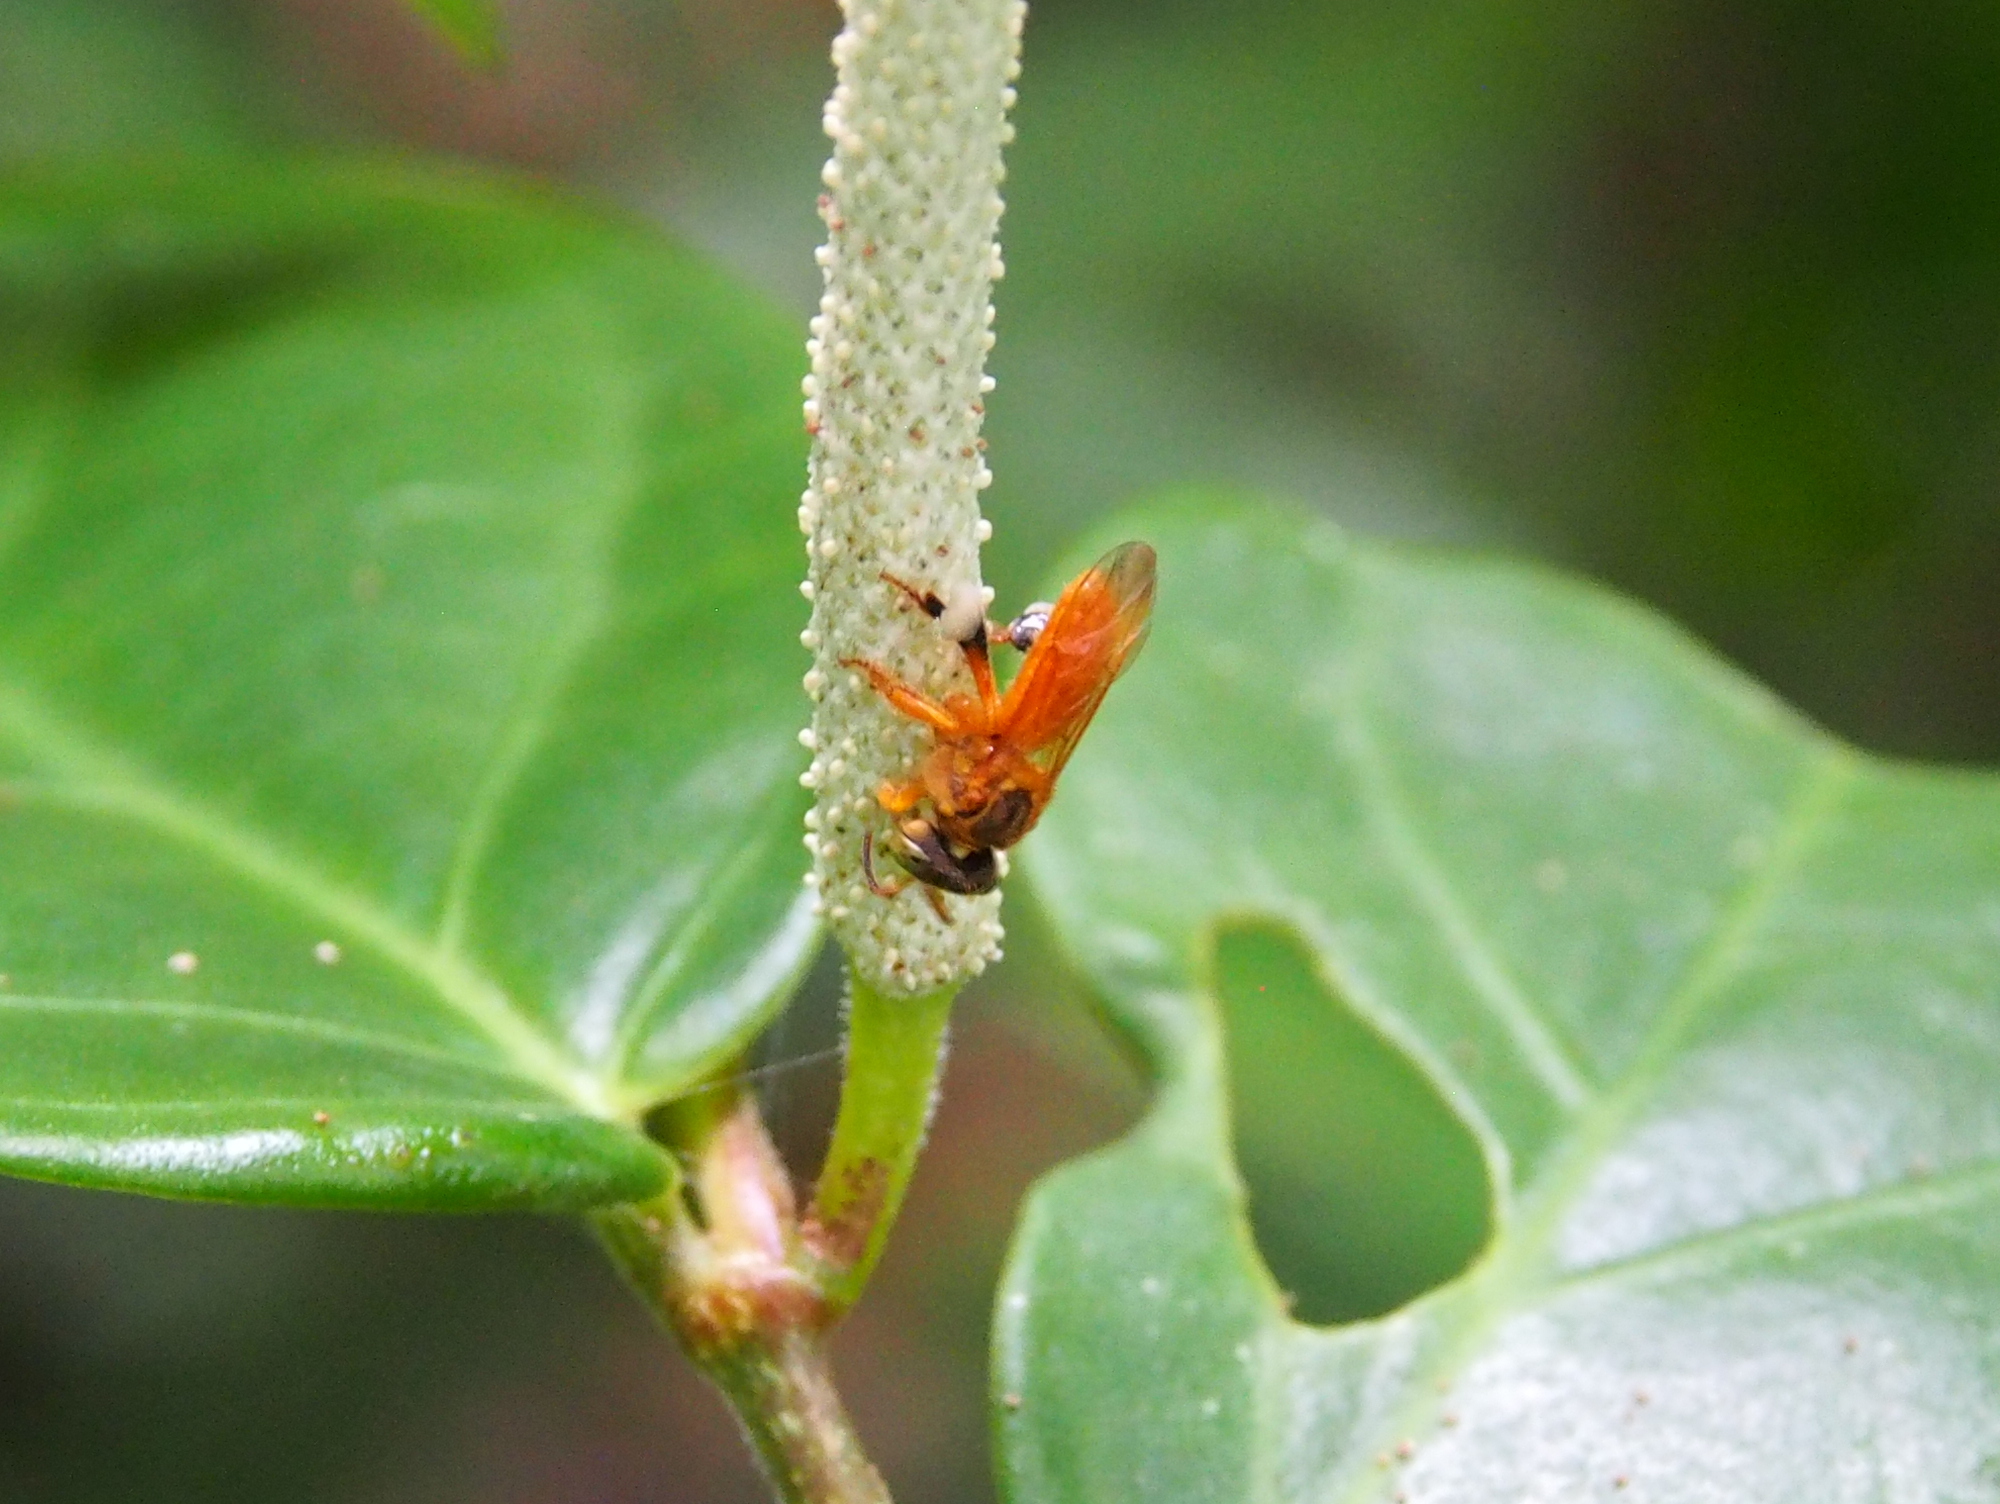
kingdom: Animalia
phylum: Arthropoda
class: Insecta
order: Hymenoptera
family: Apidae
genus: Trigona
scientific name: Trigona ferricauda
